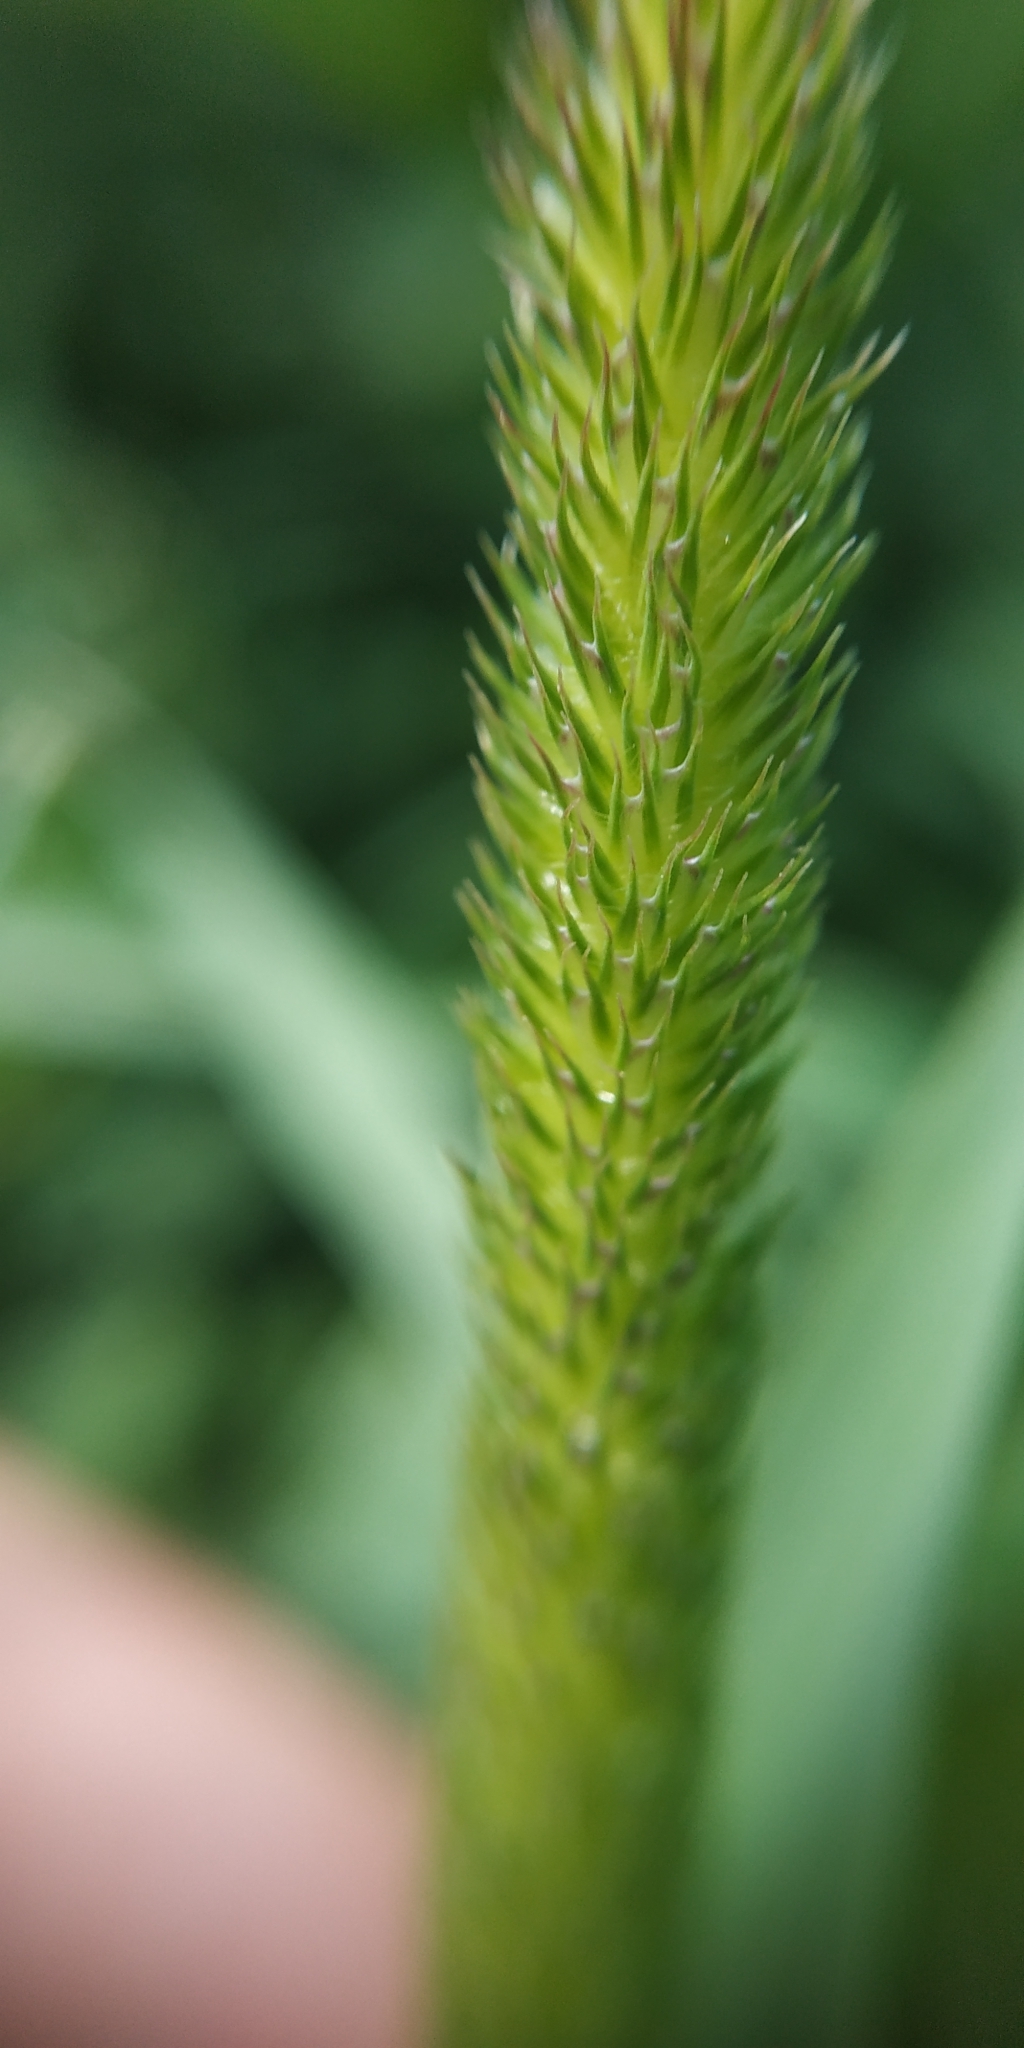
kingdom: Plantae
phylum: Tracheophyta
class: Liliopsida
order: Poales
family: Poaceae
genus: Phleum
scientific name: Phleum pratense
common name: Timothy grass
